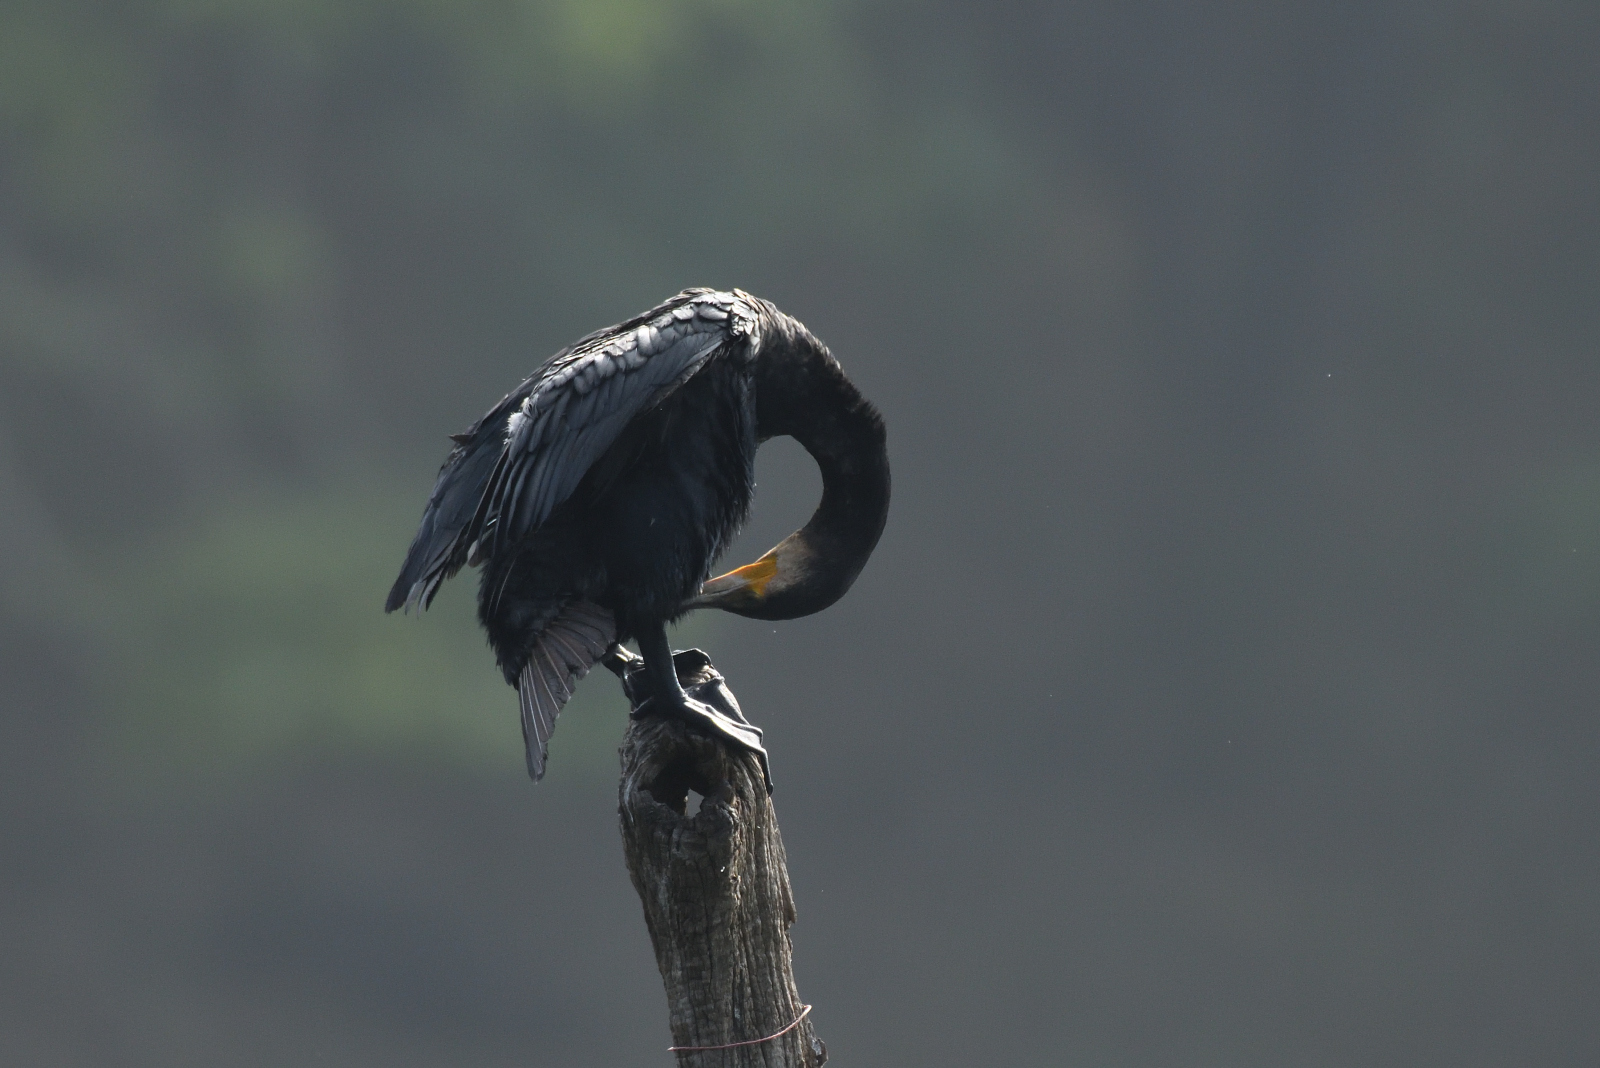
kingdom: Animalia
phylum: Chordata
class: Aves
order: Suliformes
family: Phalacrocoracidae
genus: Phalacrocorax
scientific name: Phalacrocorax fuscicollis
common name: Indian cormorant
